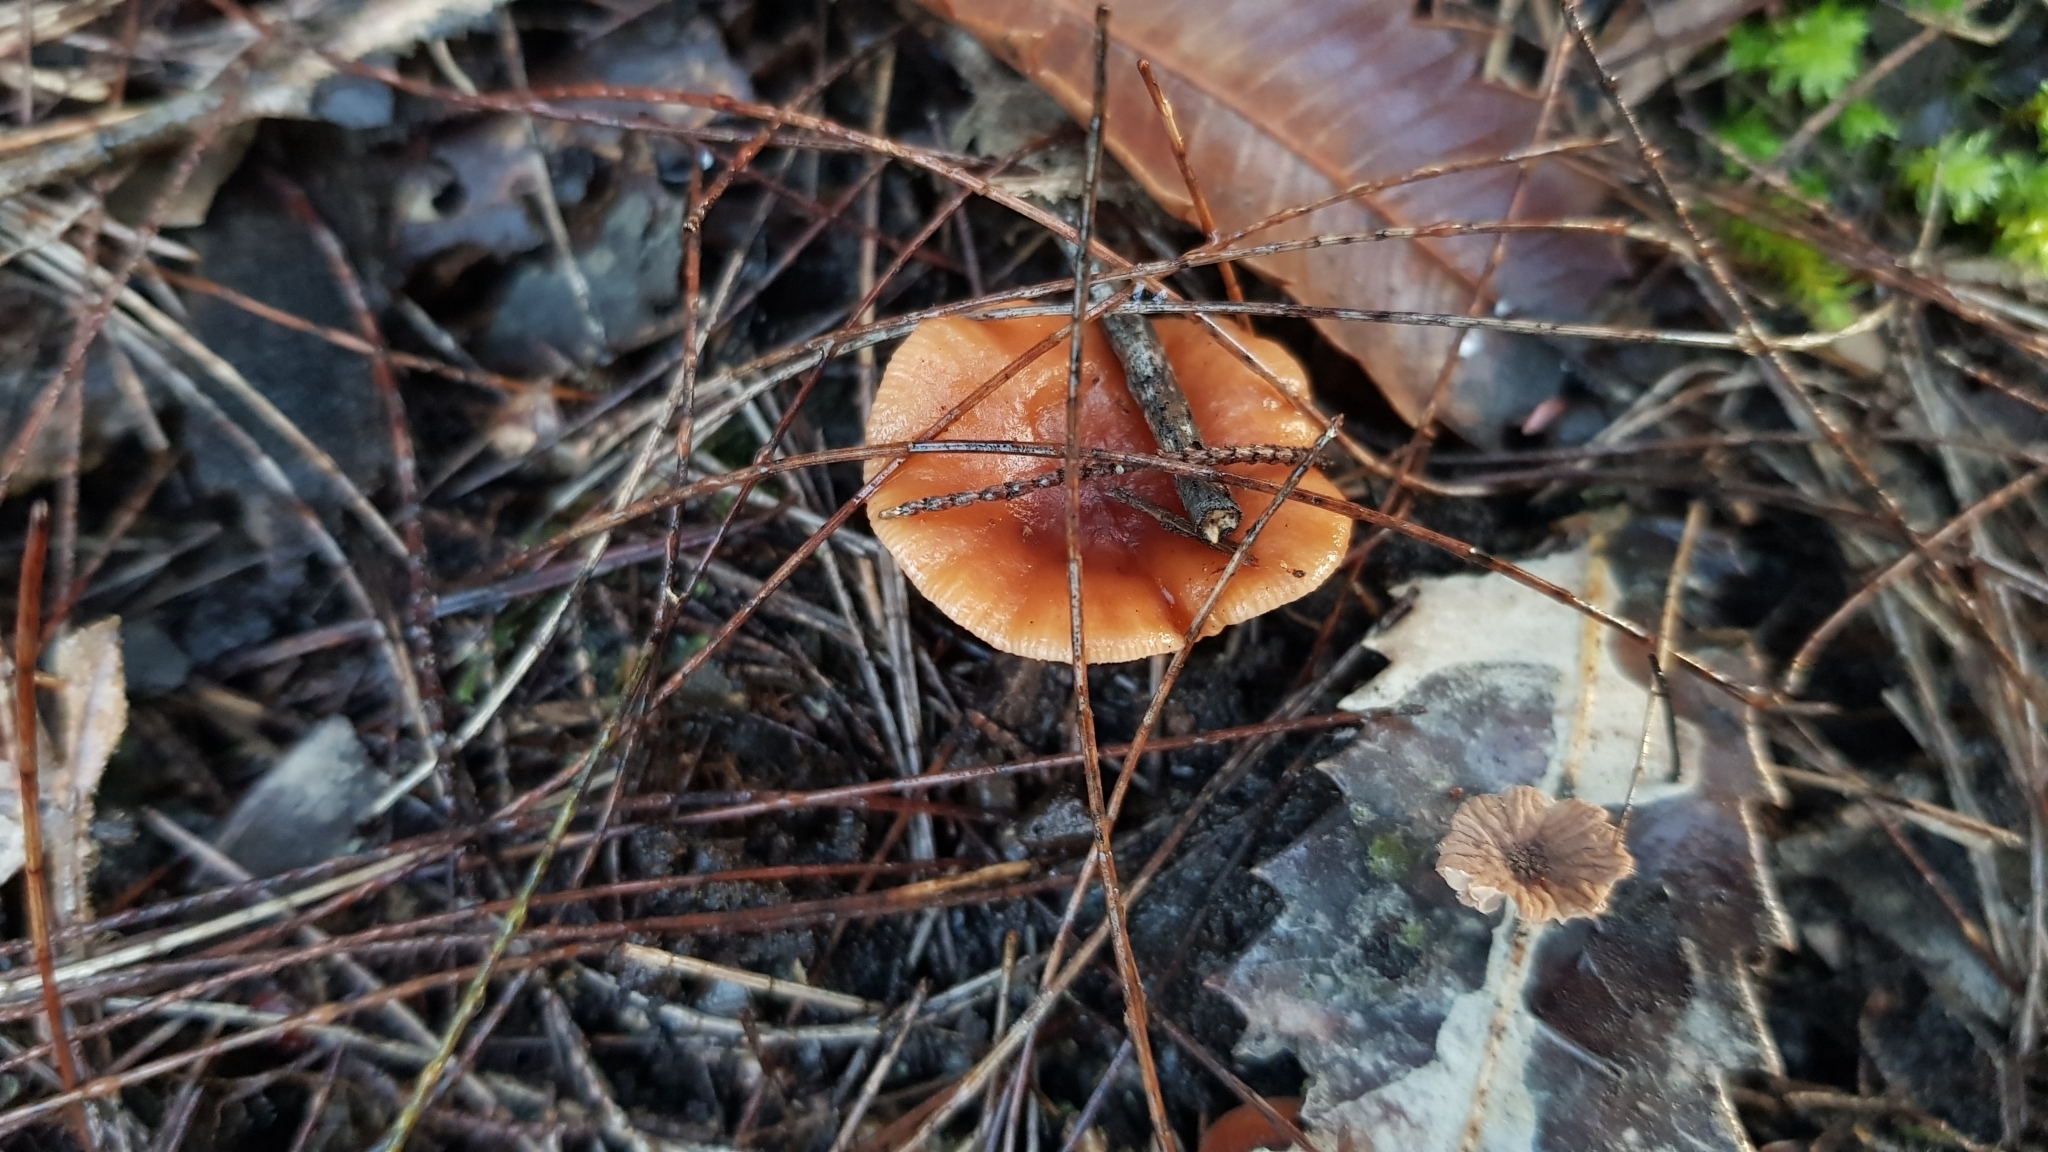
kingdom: Fungi
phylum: Basidiomycota
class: Agaricomycetes
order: Russulales
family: Russulaceae
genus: Lactarius
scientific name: Lactarius eucalypti
